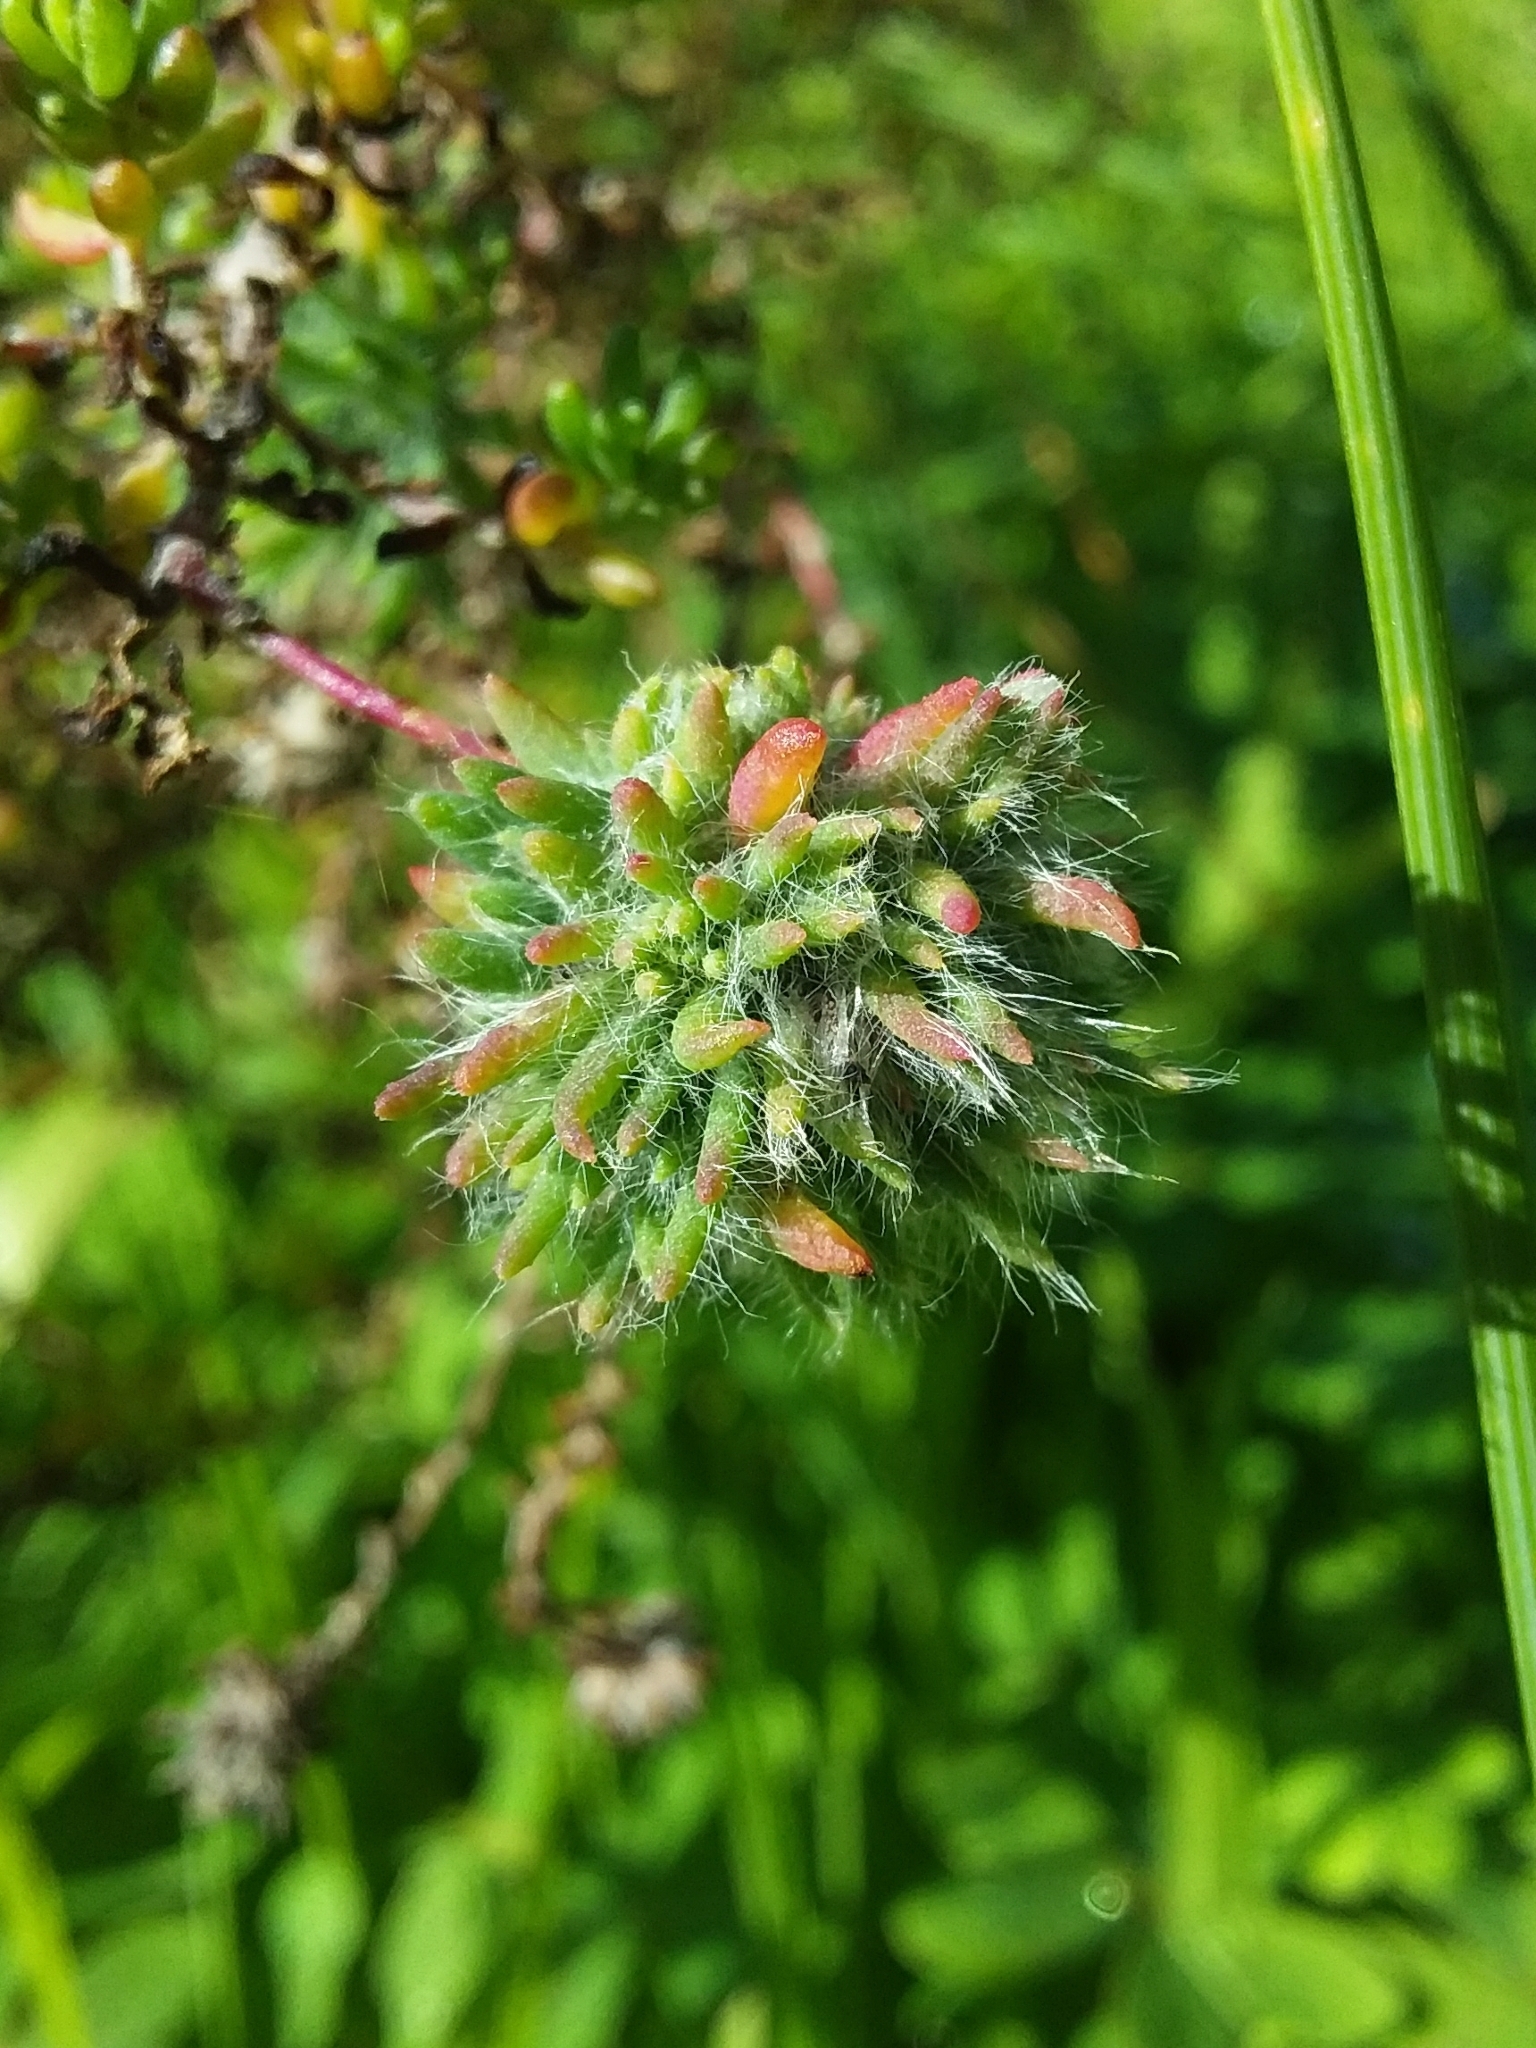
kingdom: Animalia
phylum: Arthropoda
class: Insecta
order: Diptera
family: Cecidomyiidae
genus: Dactylasioptera
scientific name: Dactylasioptera milnae
